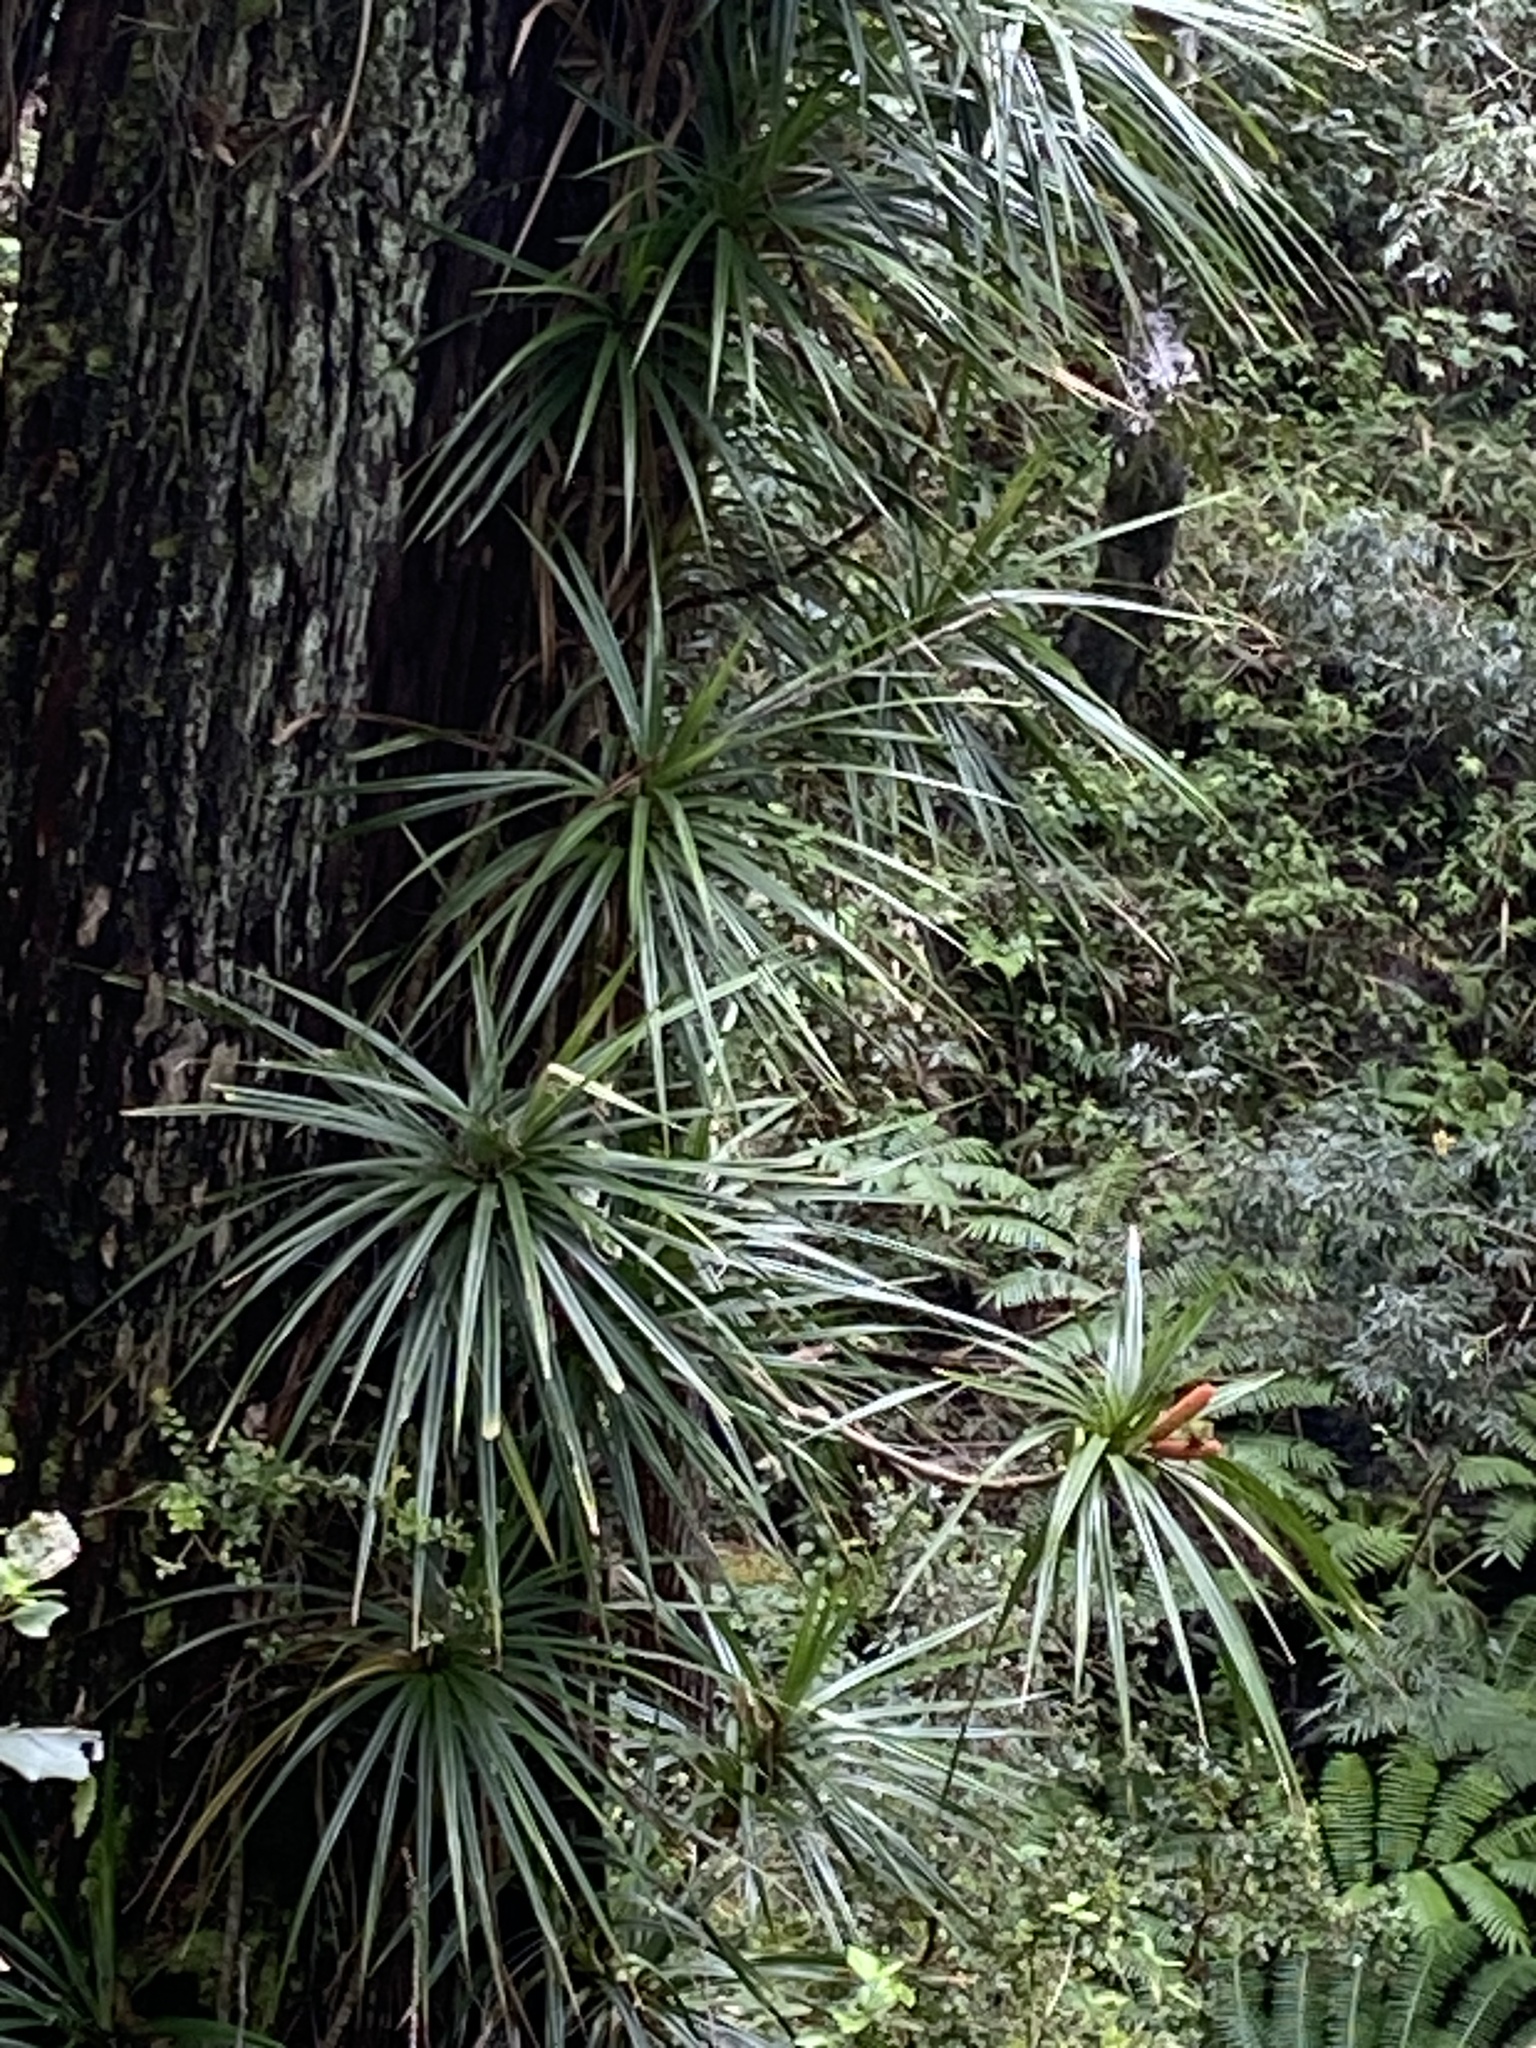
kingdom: Plantae
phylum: Tracheophyta
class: Liliopsida
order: Pandanales
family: Pandanaceae
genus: Freycinetia
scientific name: Freycinetia arborea
